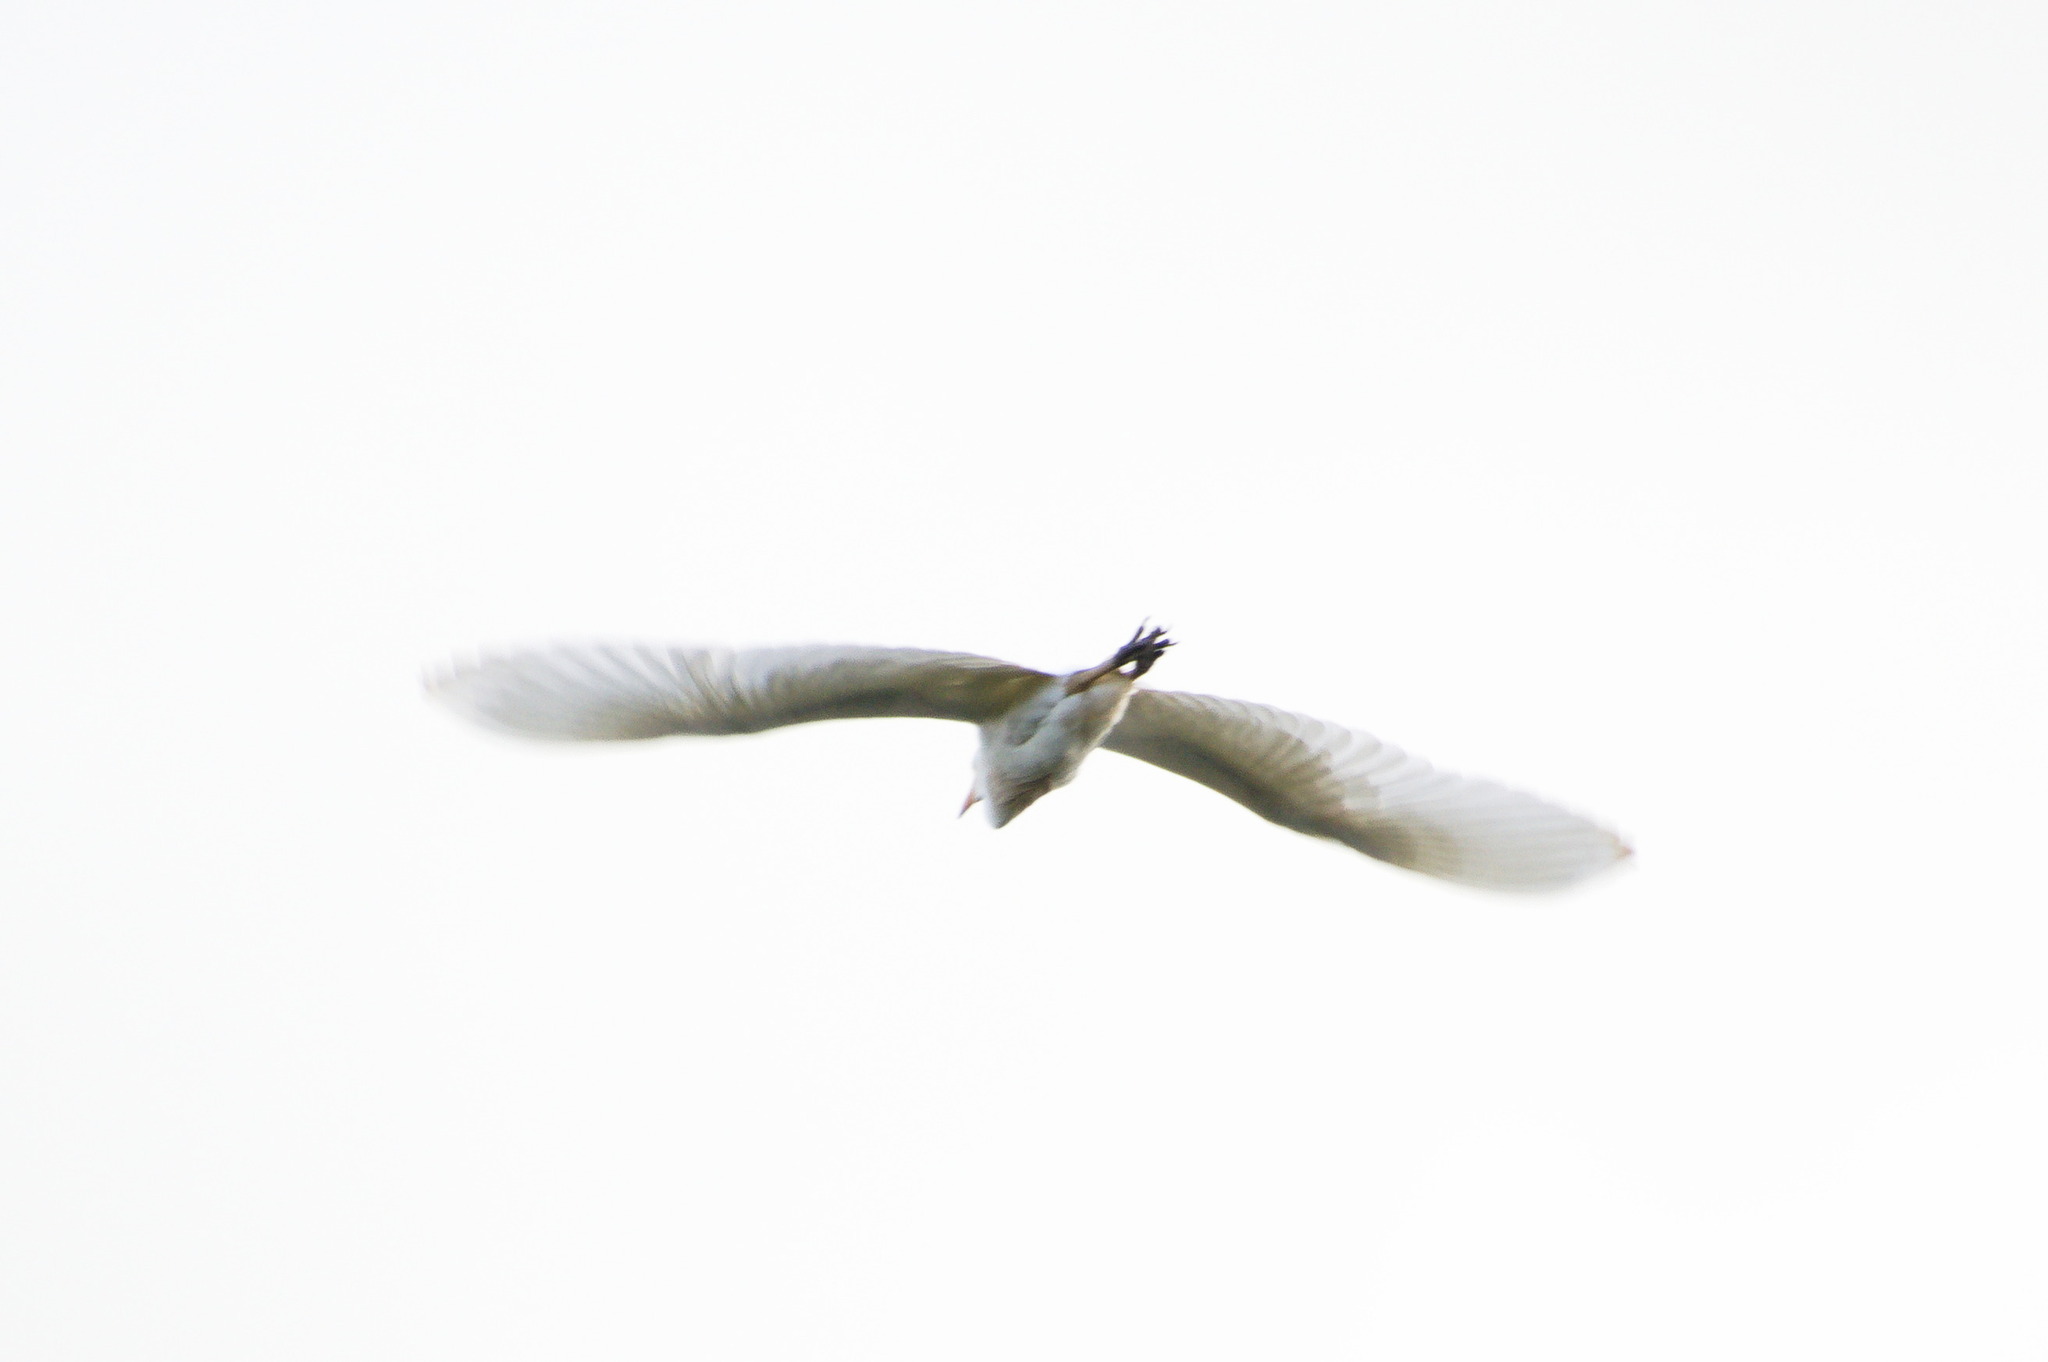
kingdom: Animalia
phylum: Chordata
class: Aves
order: Pelecaniformes
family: Ardeidae
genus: Bubulcus
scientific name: Bubulcus ibis
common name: Cattle egret
